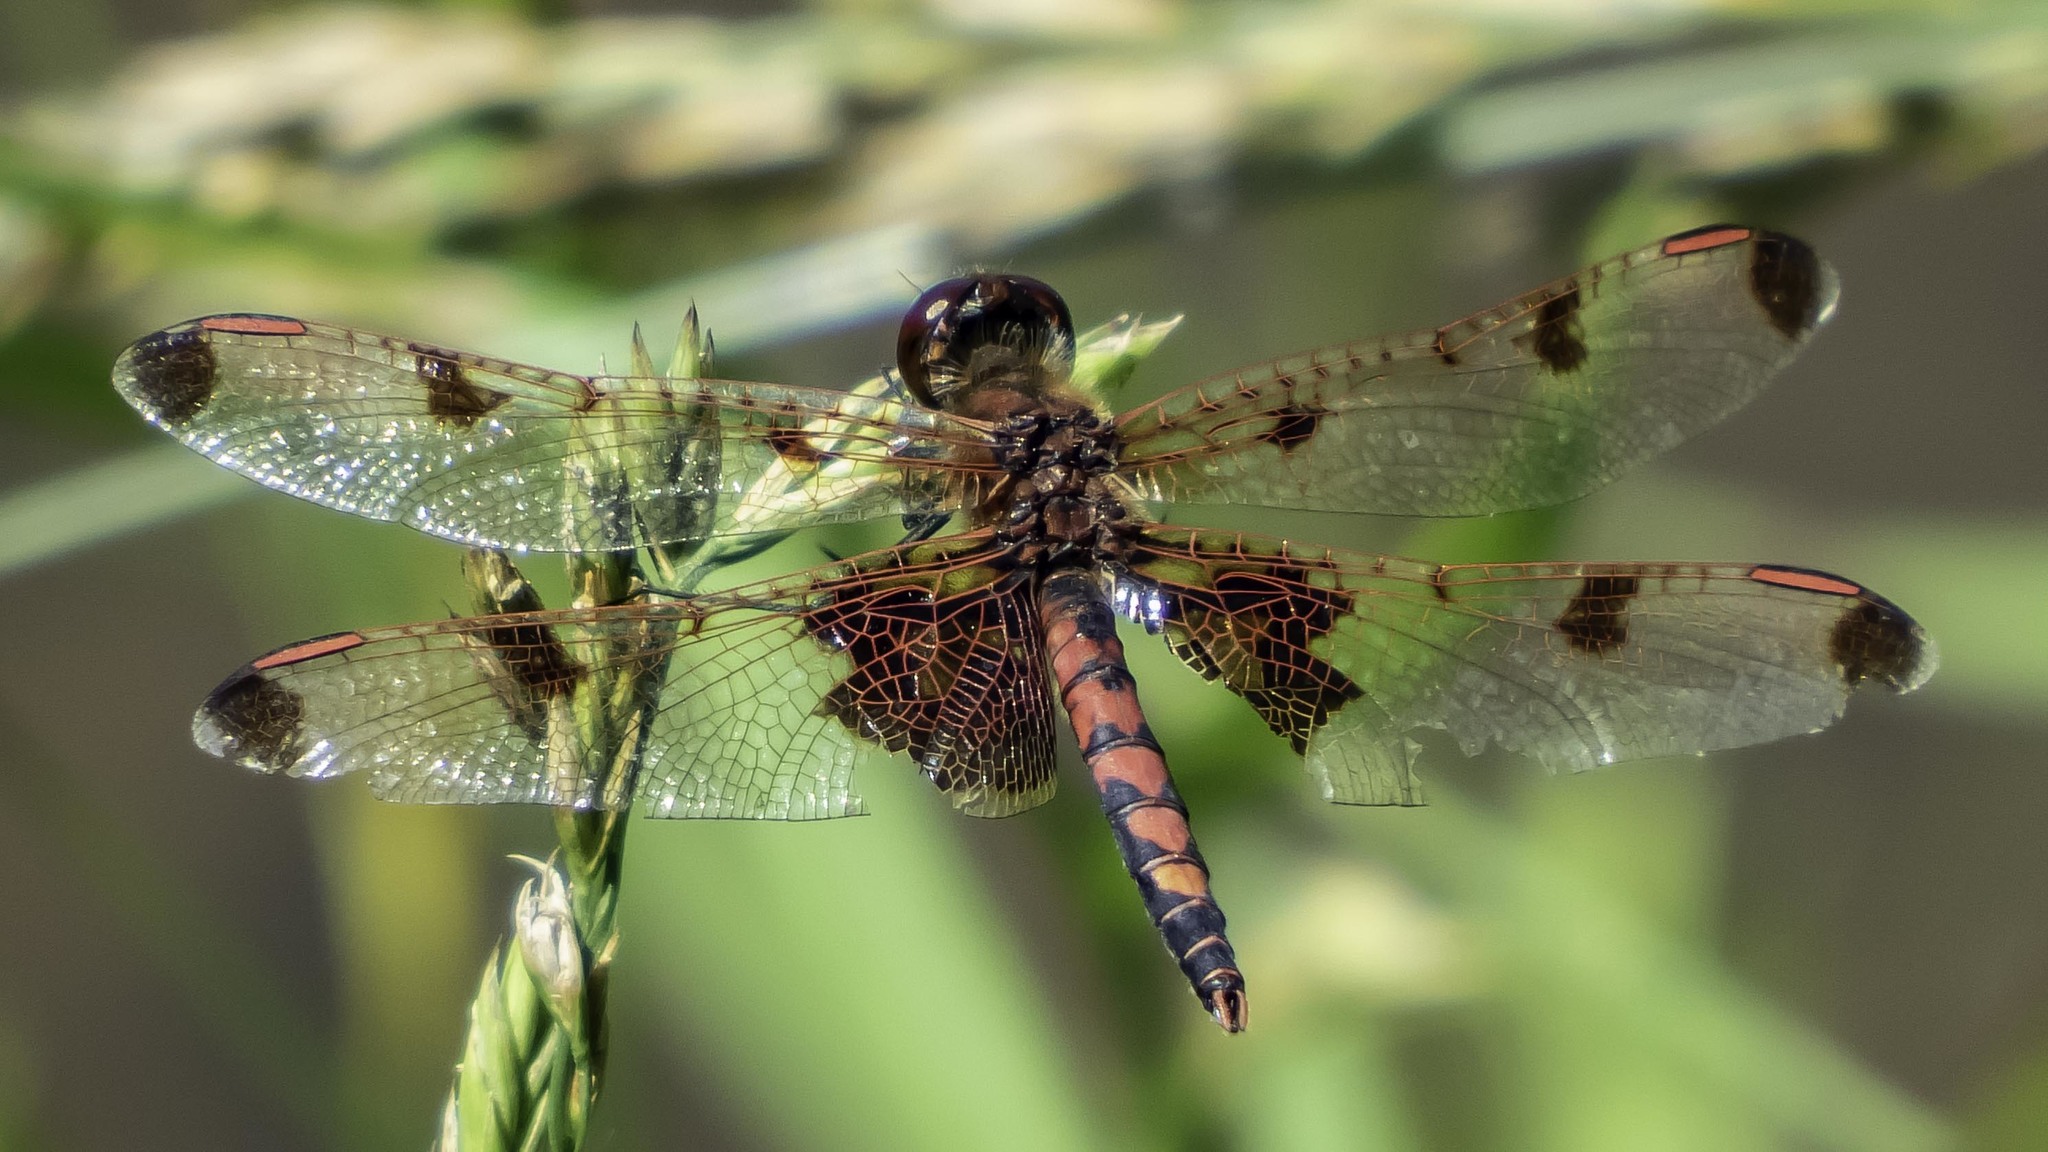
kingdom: Animalia
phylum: Arthropoda
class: Insecta
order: Odonata
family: Libellulidae
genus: Celithemis
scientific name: Celithemis elisa
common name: Calico pennant
